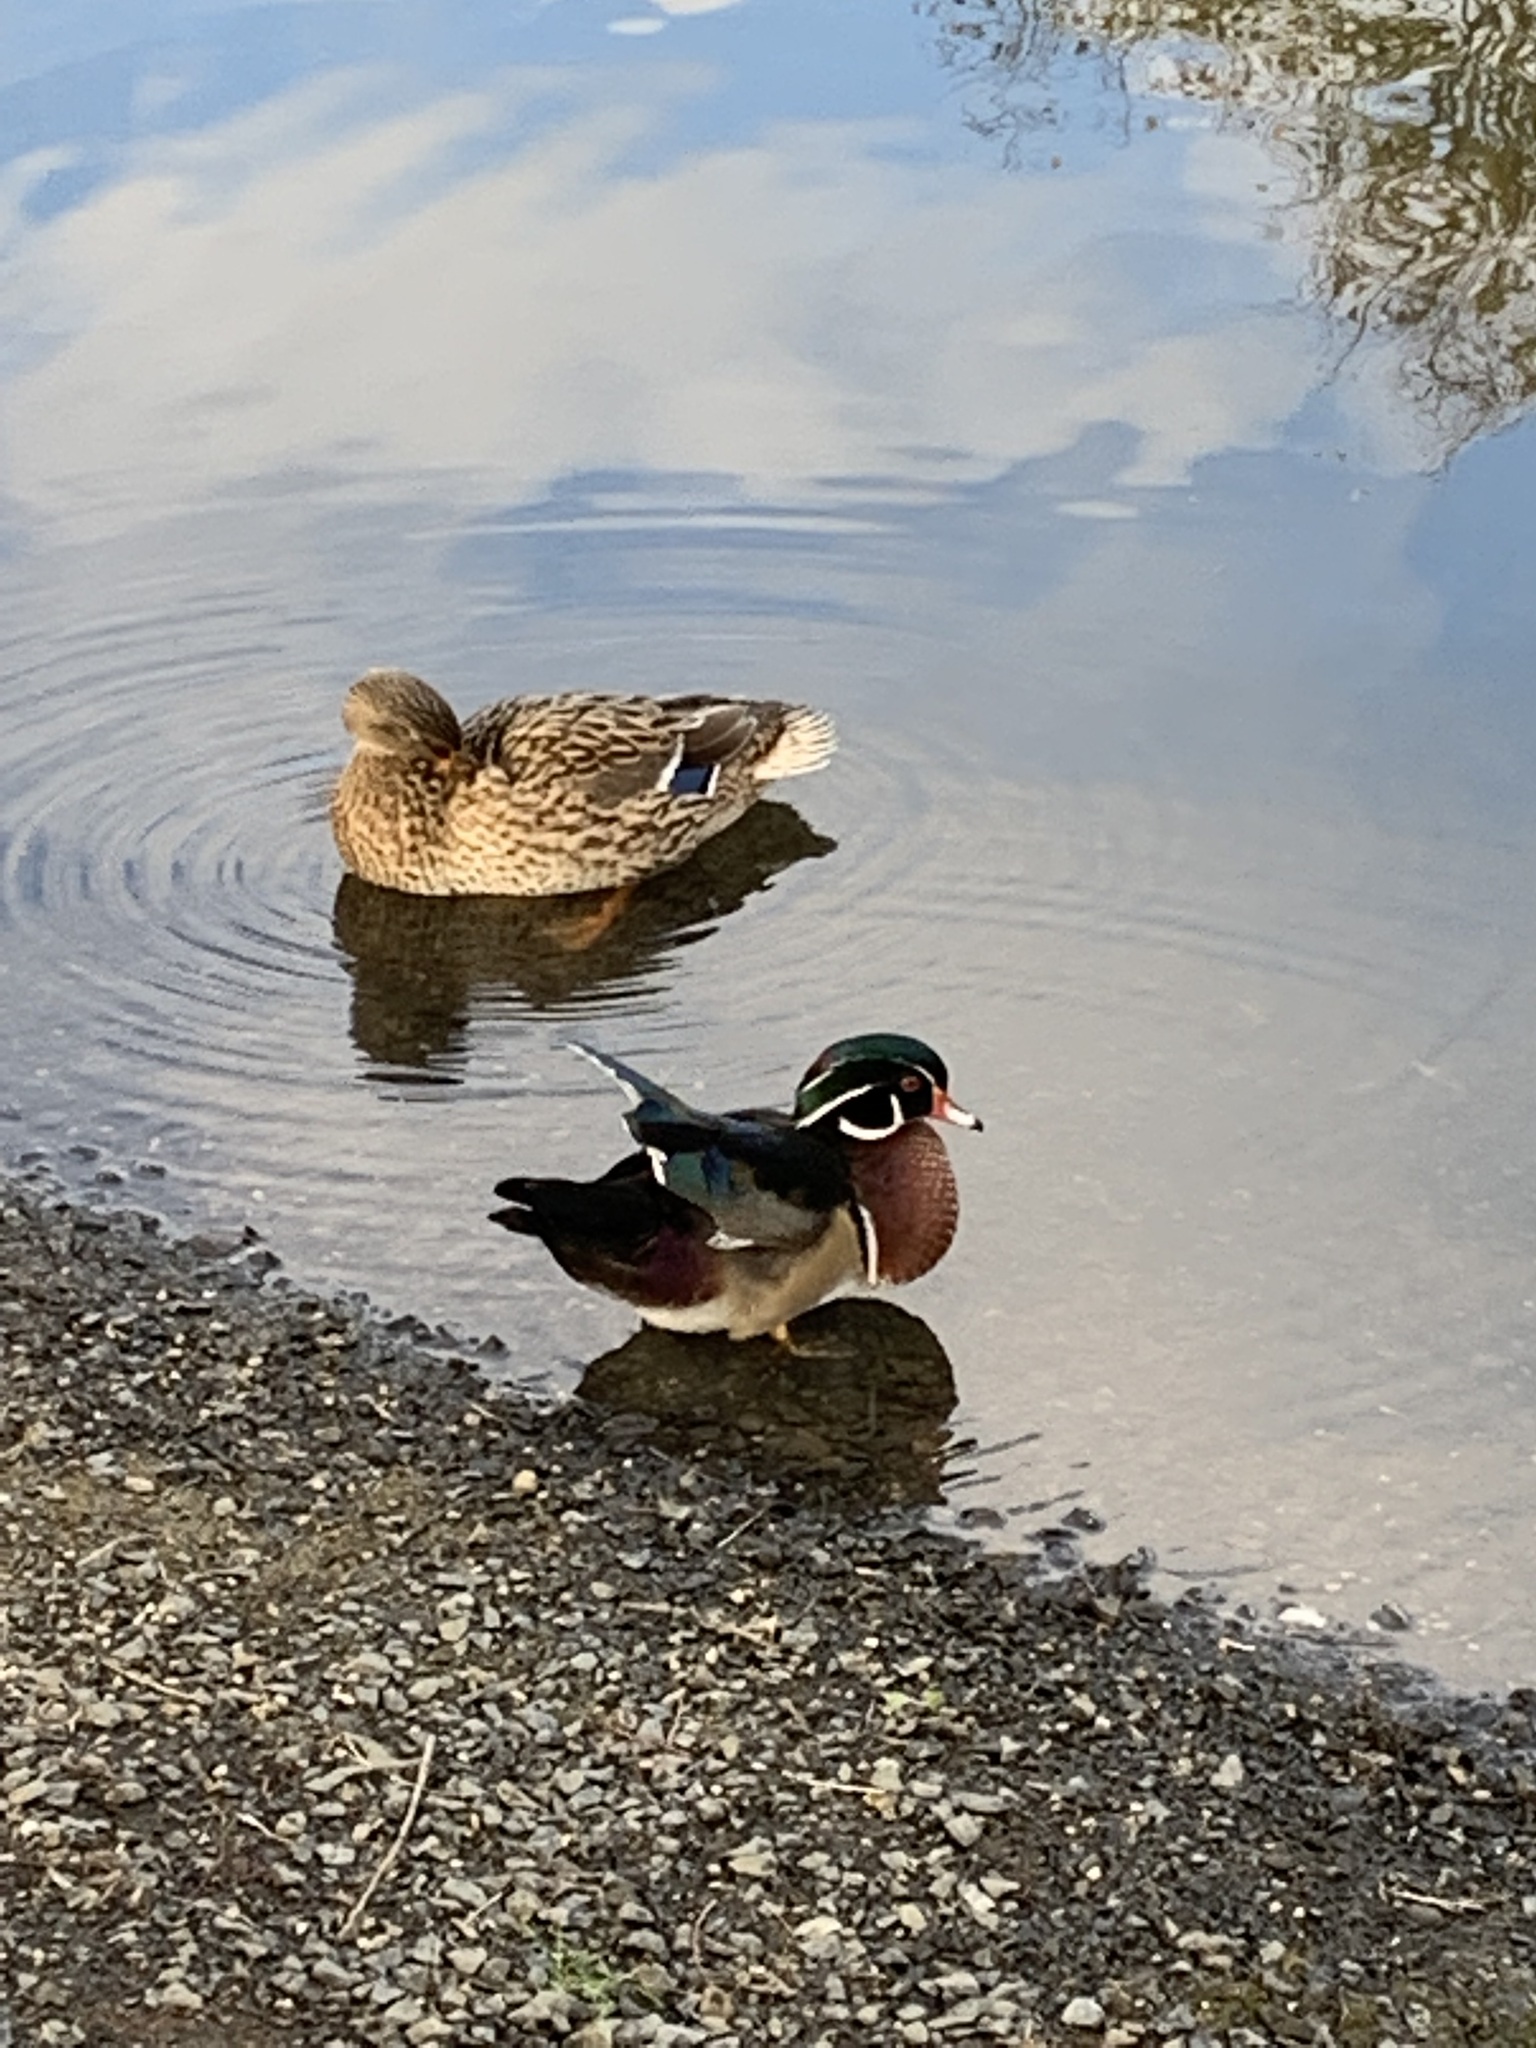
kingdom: Animalia
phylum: Chordata
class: Aves
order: Anseriformes
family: Anatidae
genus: Aix
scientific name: Aix sponsa
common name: Wood duck
